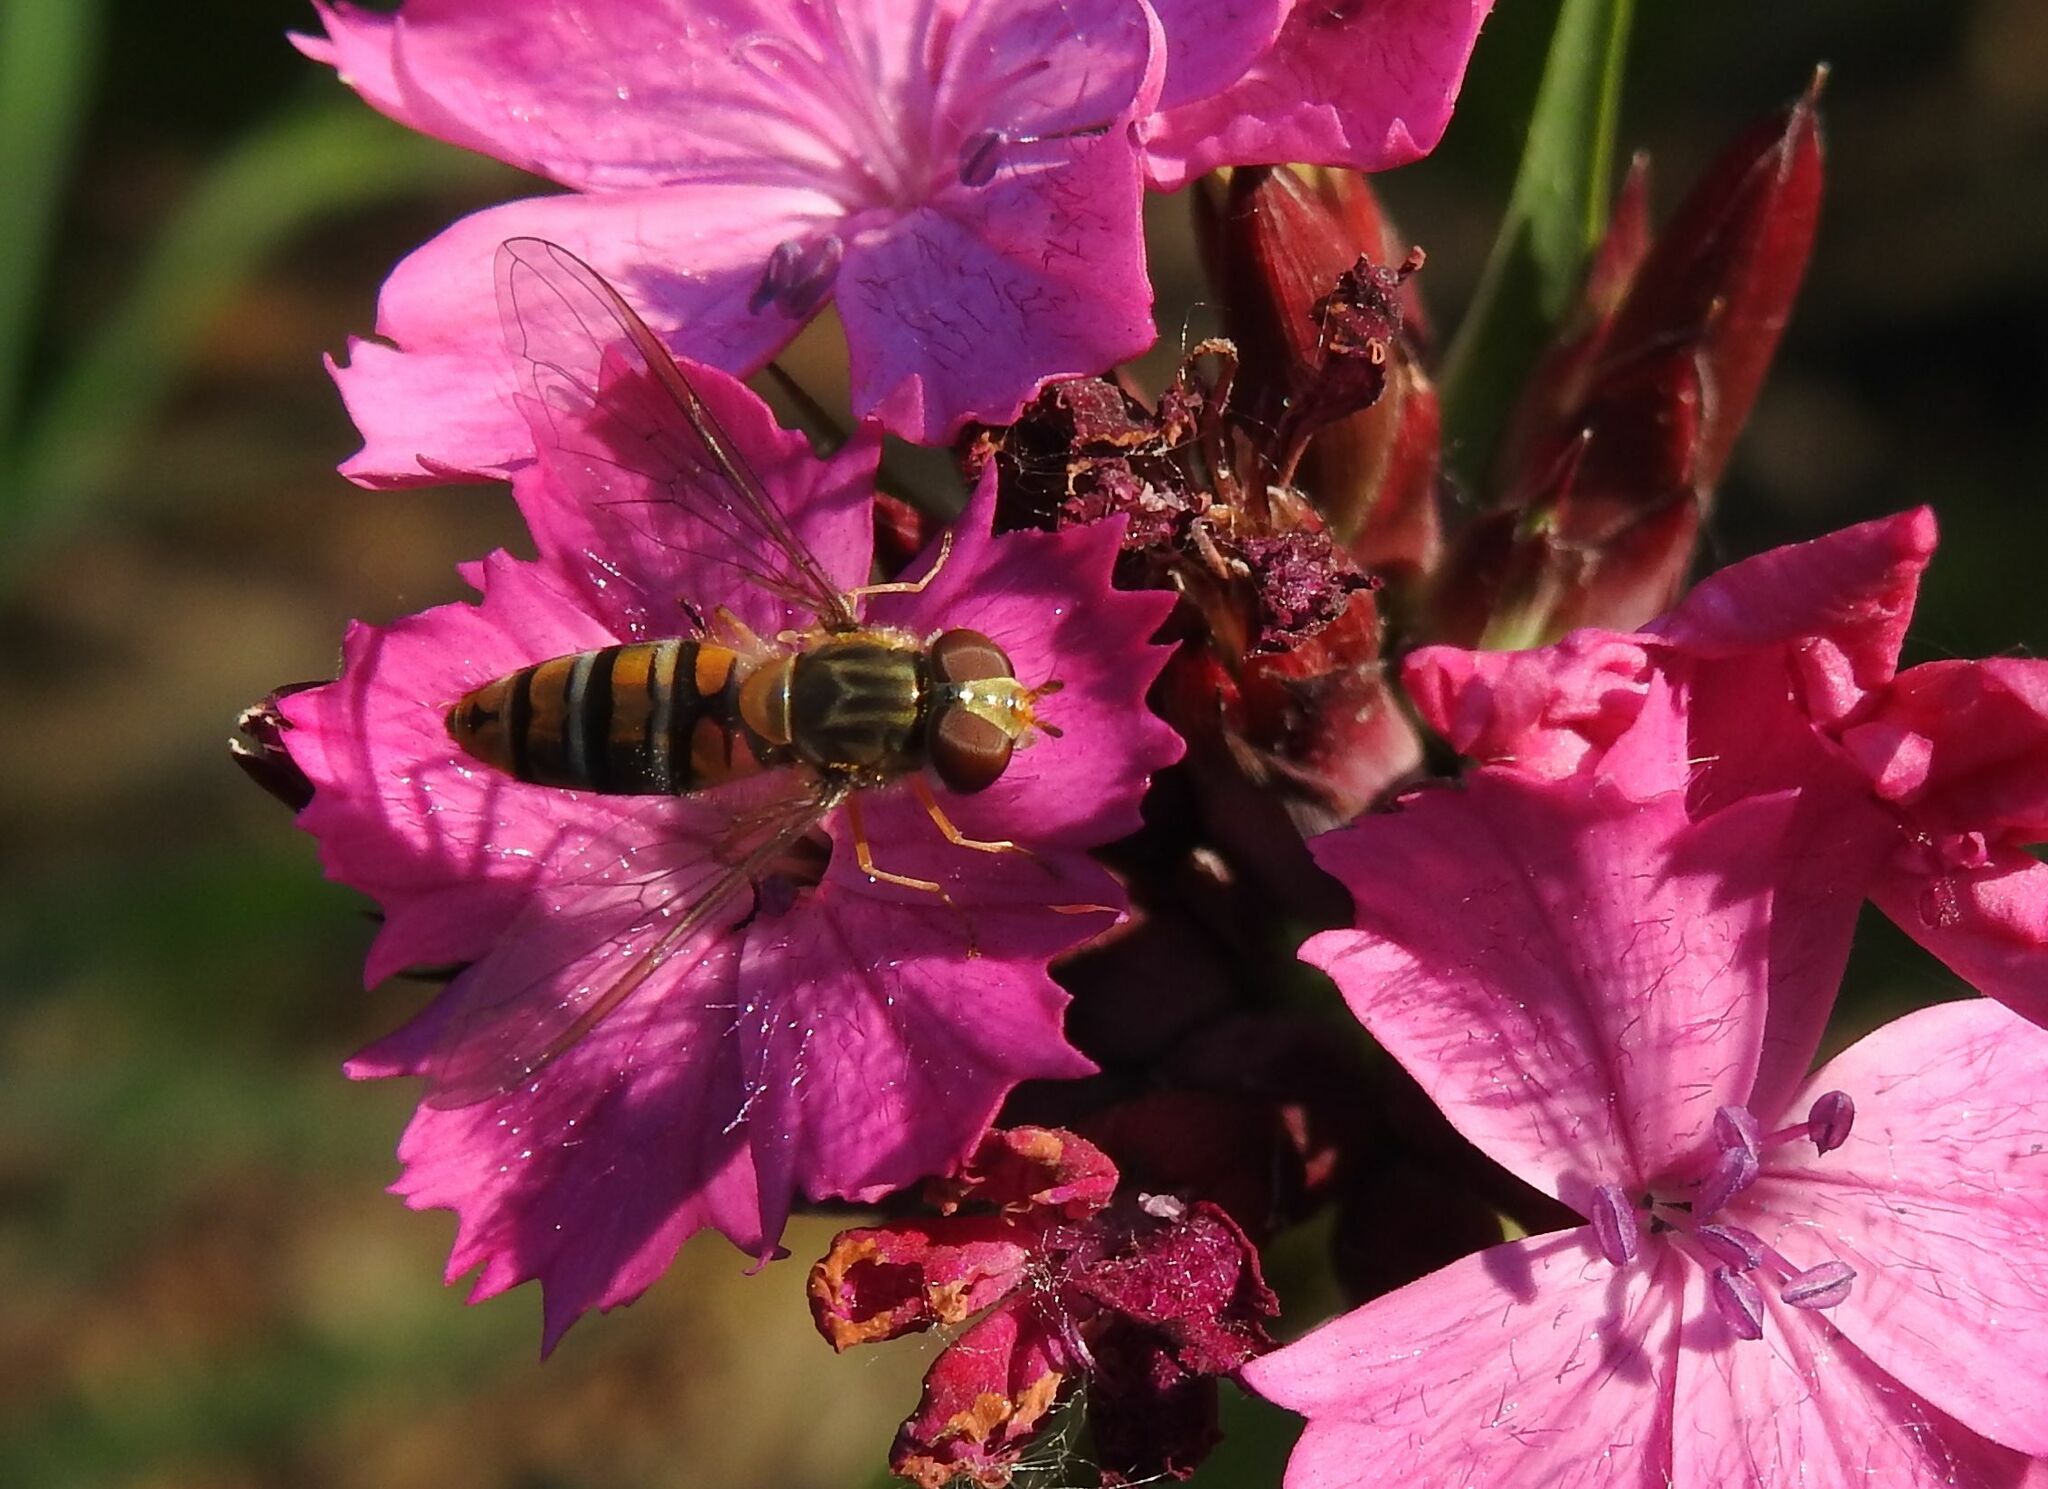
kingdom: Animalia
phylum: Arthropoda
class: Insecta
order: Diptera
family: Syrphidae
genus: Episyrphus
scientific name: Episyrphus balteatus
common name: Marmalade hoverfly
